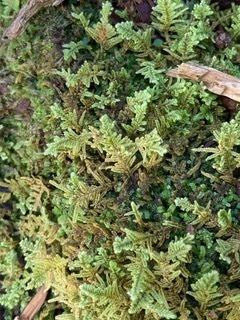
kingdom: Plantae
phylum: Bryophyta
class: Bryopsida
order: Hypnales
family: Callicladiaceae
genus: Callicladium
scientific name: Callicladium imponens
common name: Brocade moss
